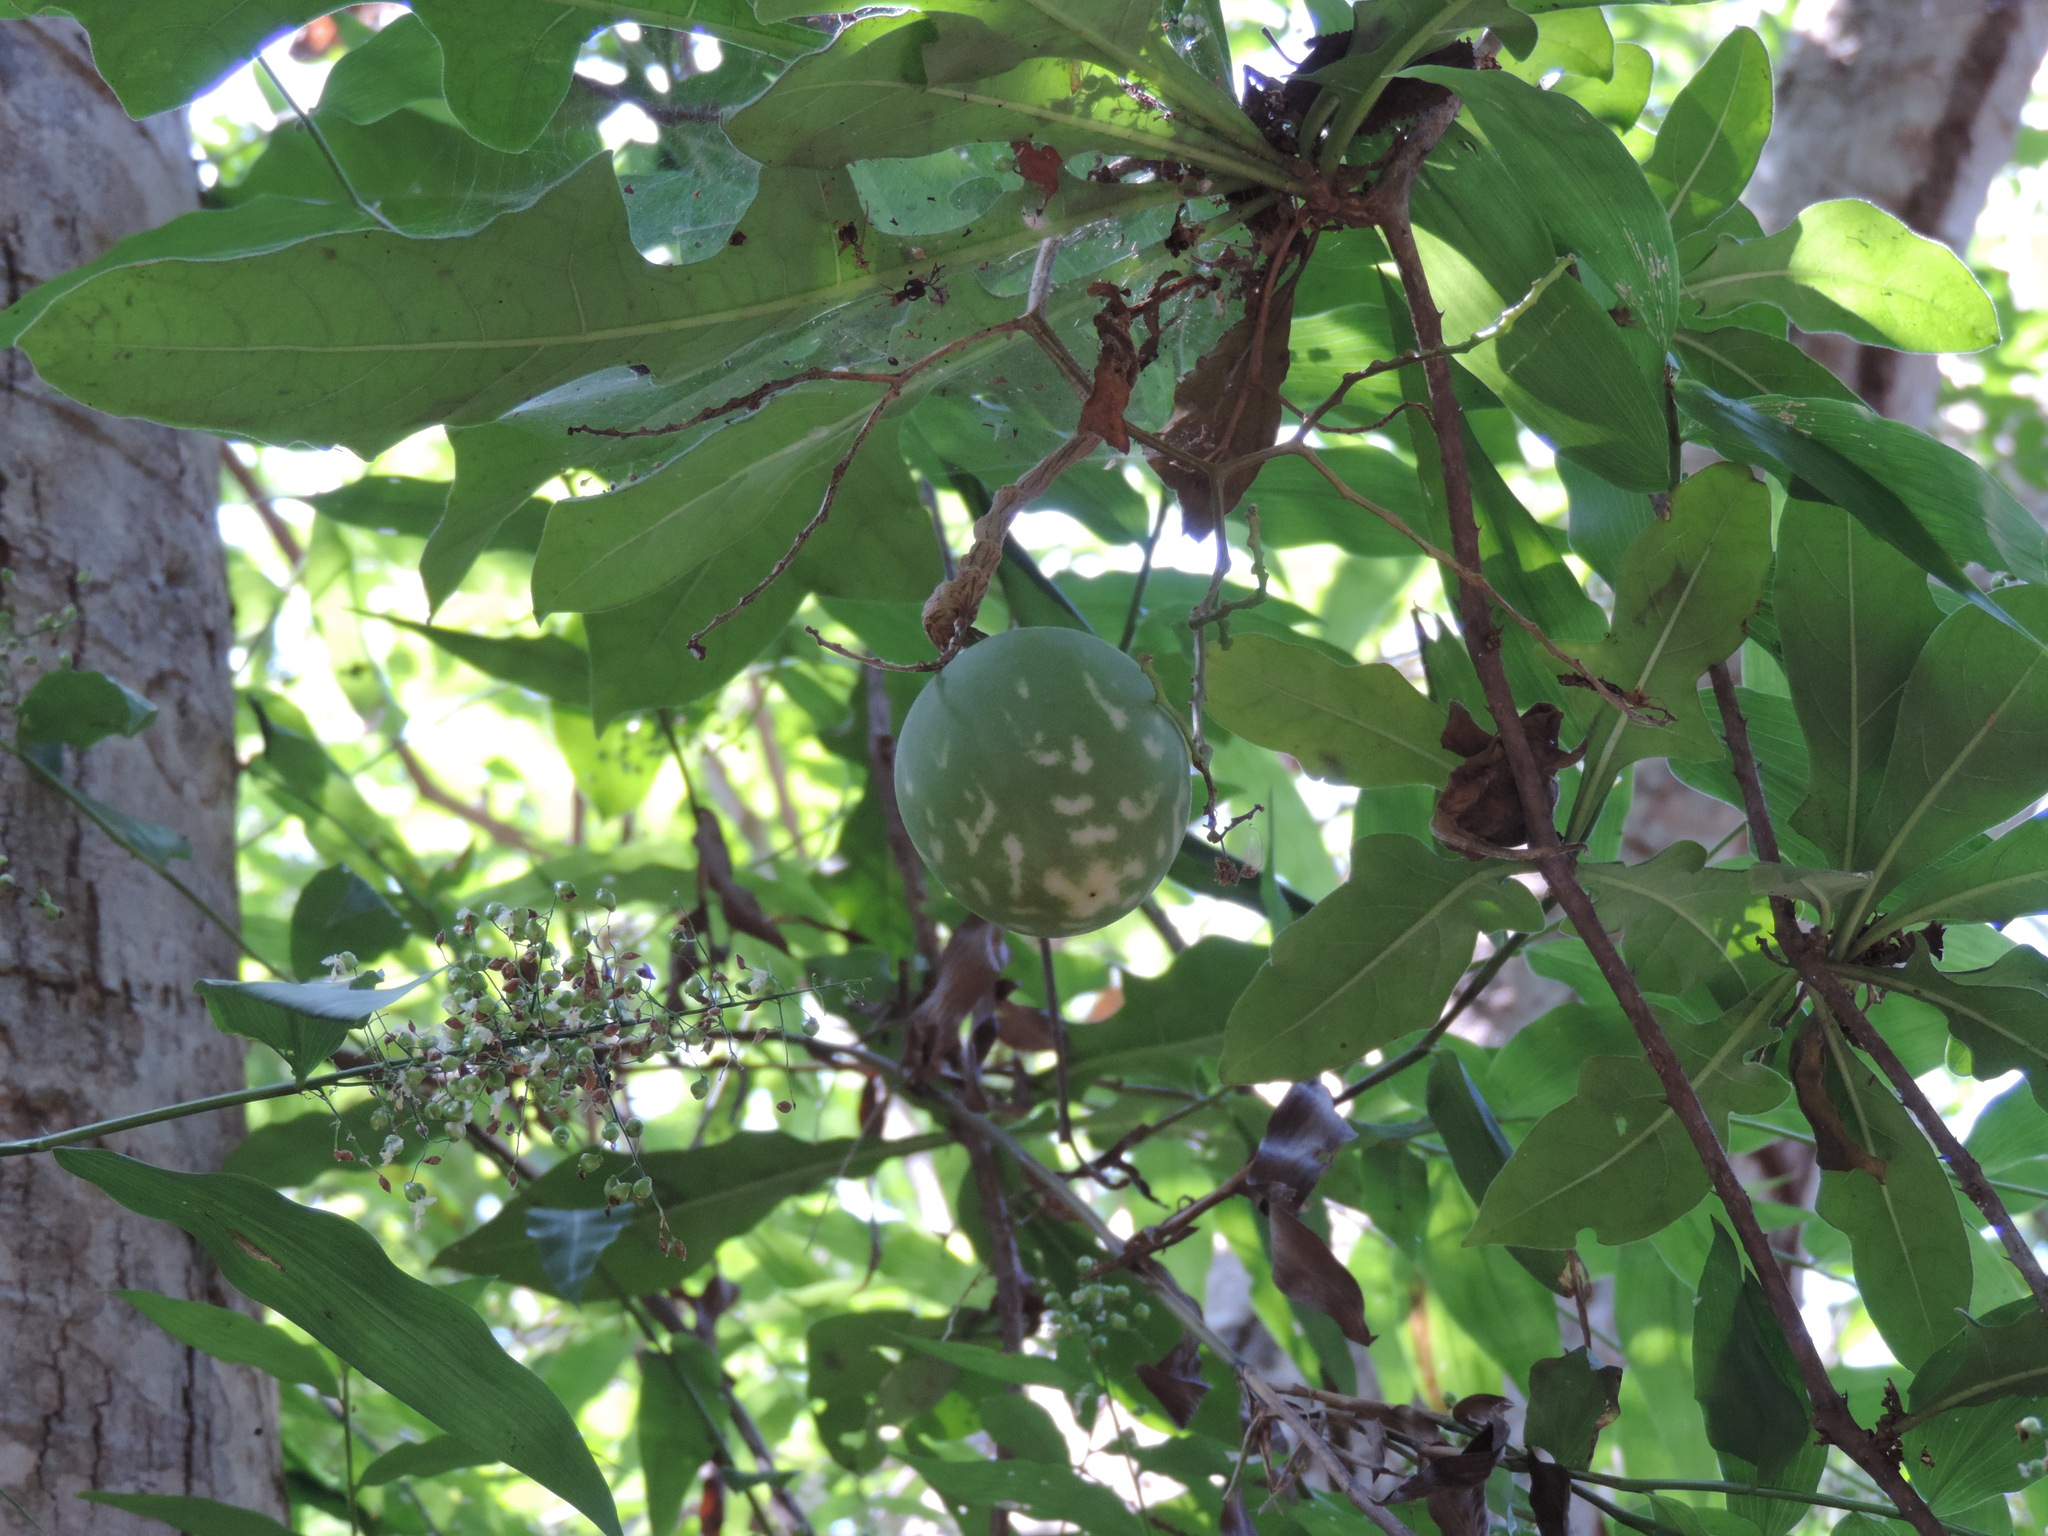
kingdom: Plantae
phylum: Tracheophyta
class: Magnoliopsida
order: Cucurbitales
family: Cucurbitaceae
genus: Cucurbita
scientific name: Cucurbita ficifolia
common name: Figleaf gourd
